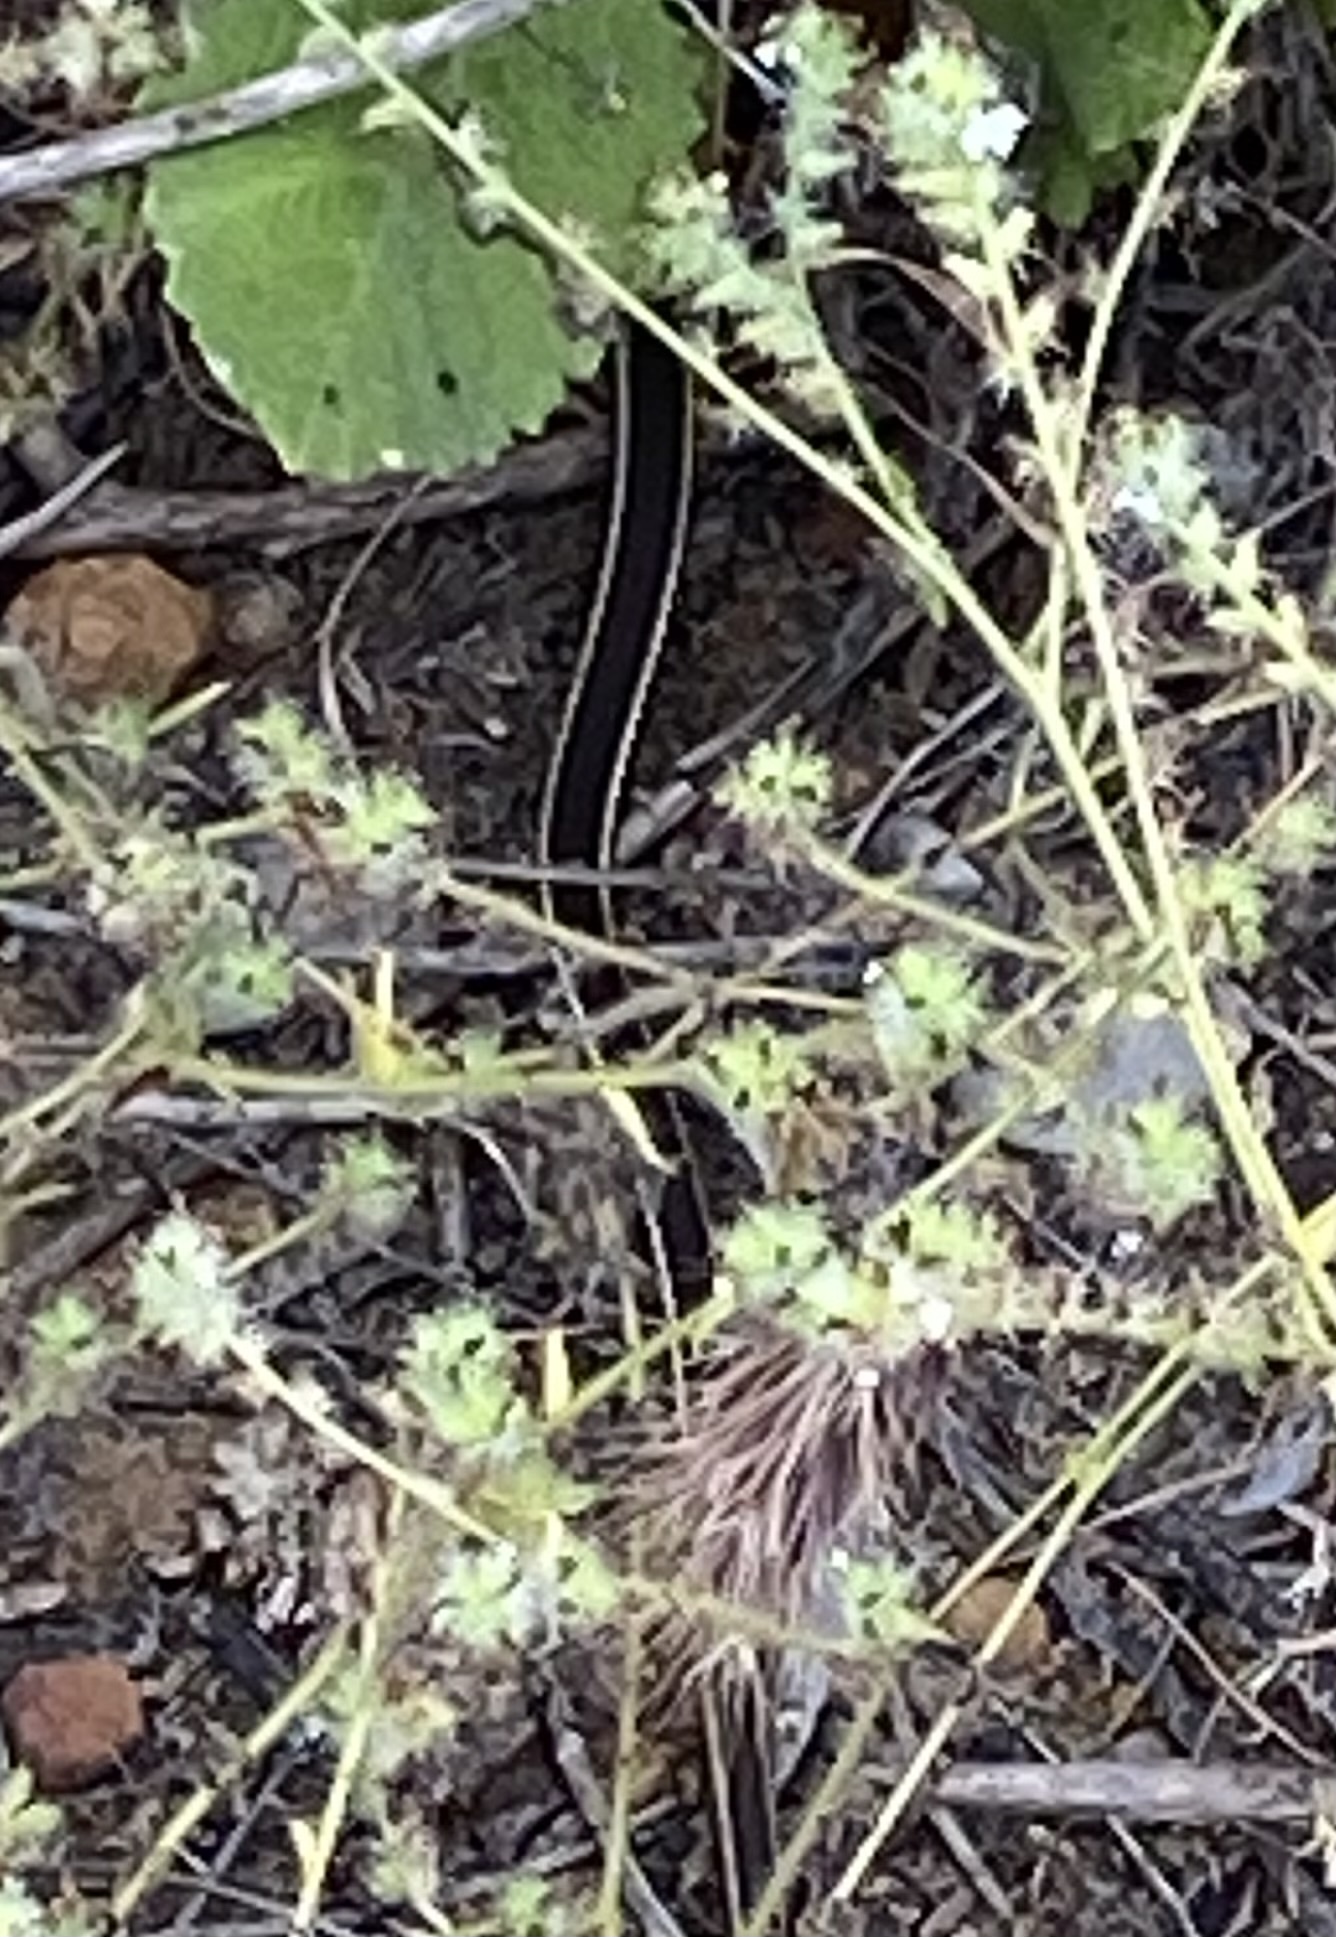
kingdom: Animalia
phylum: Chordata
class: Squamata
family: Colubridae
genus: Masticophis
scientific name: Masticophis lateralis
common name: Striped racer
